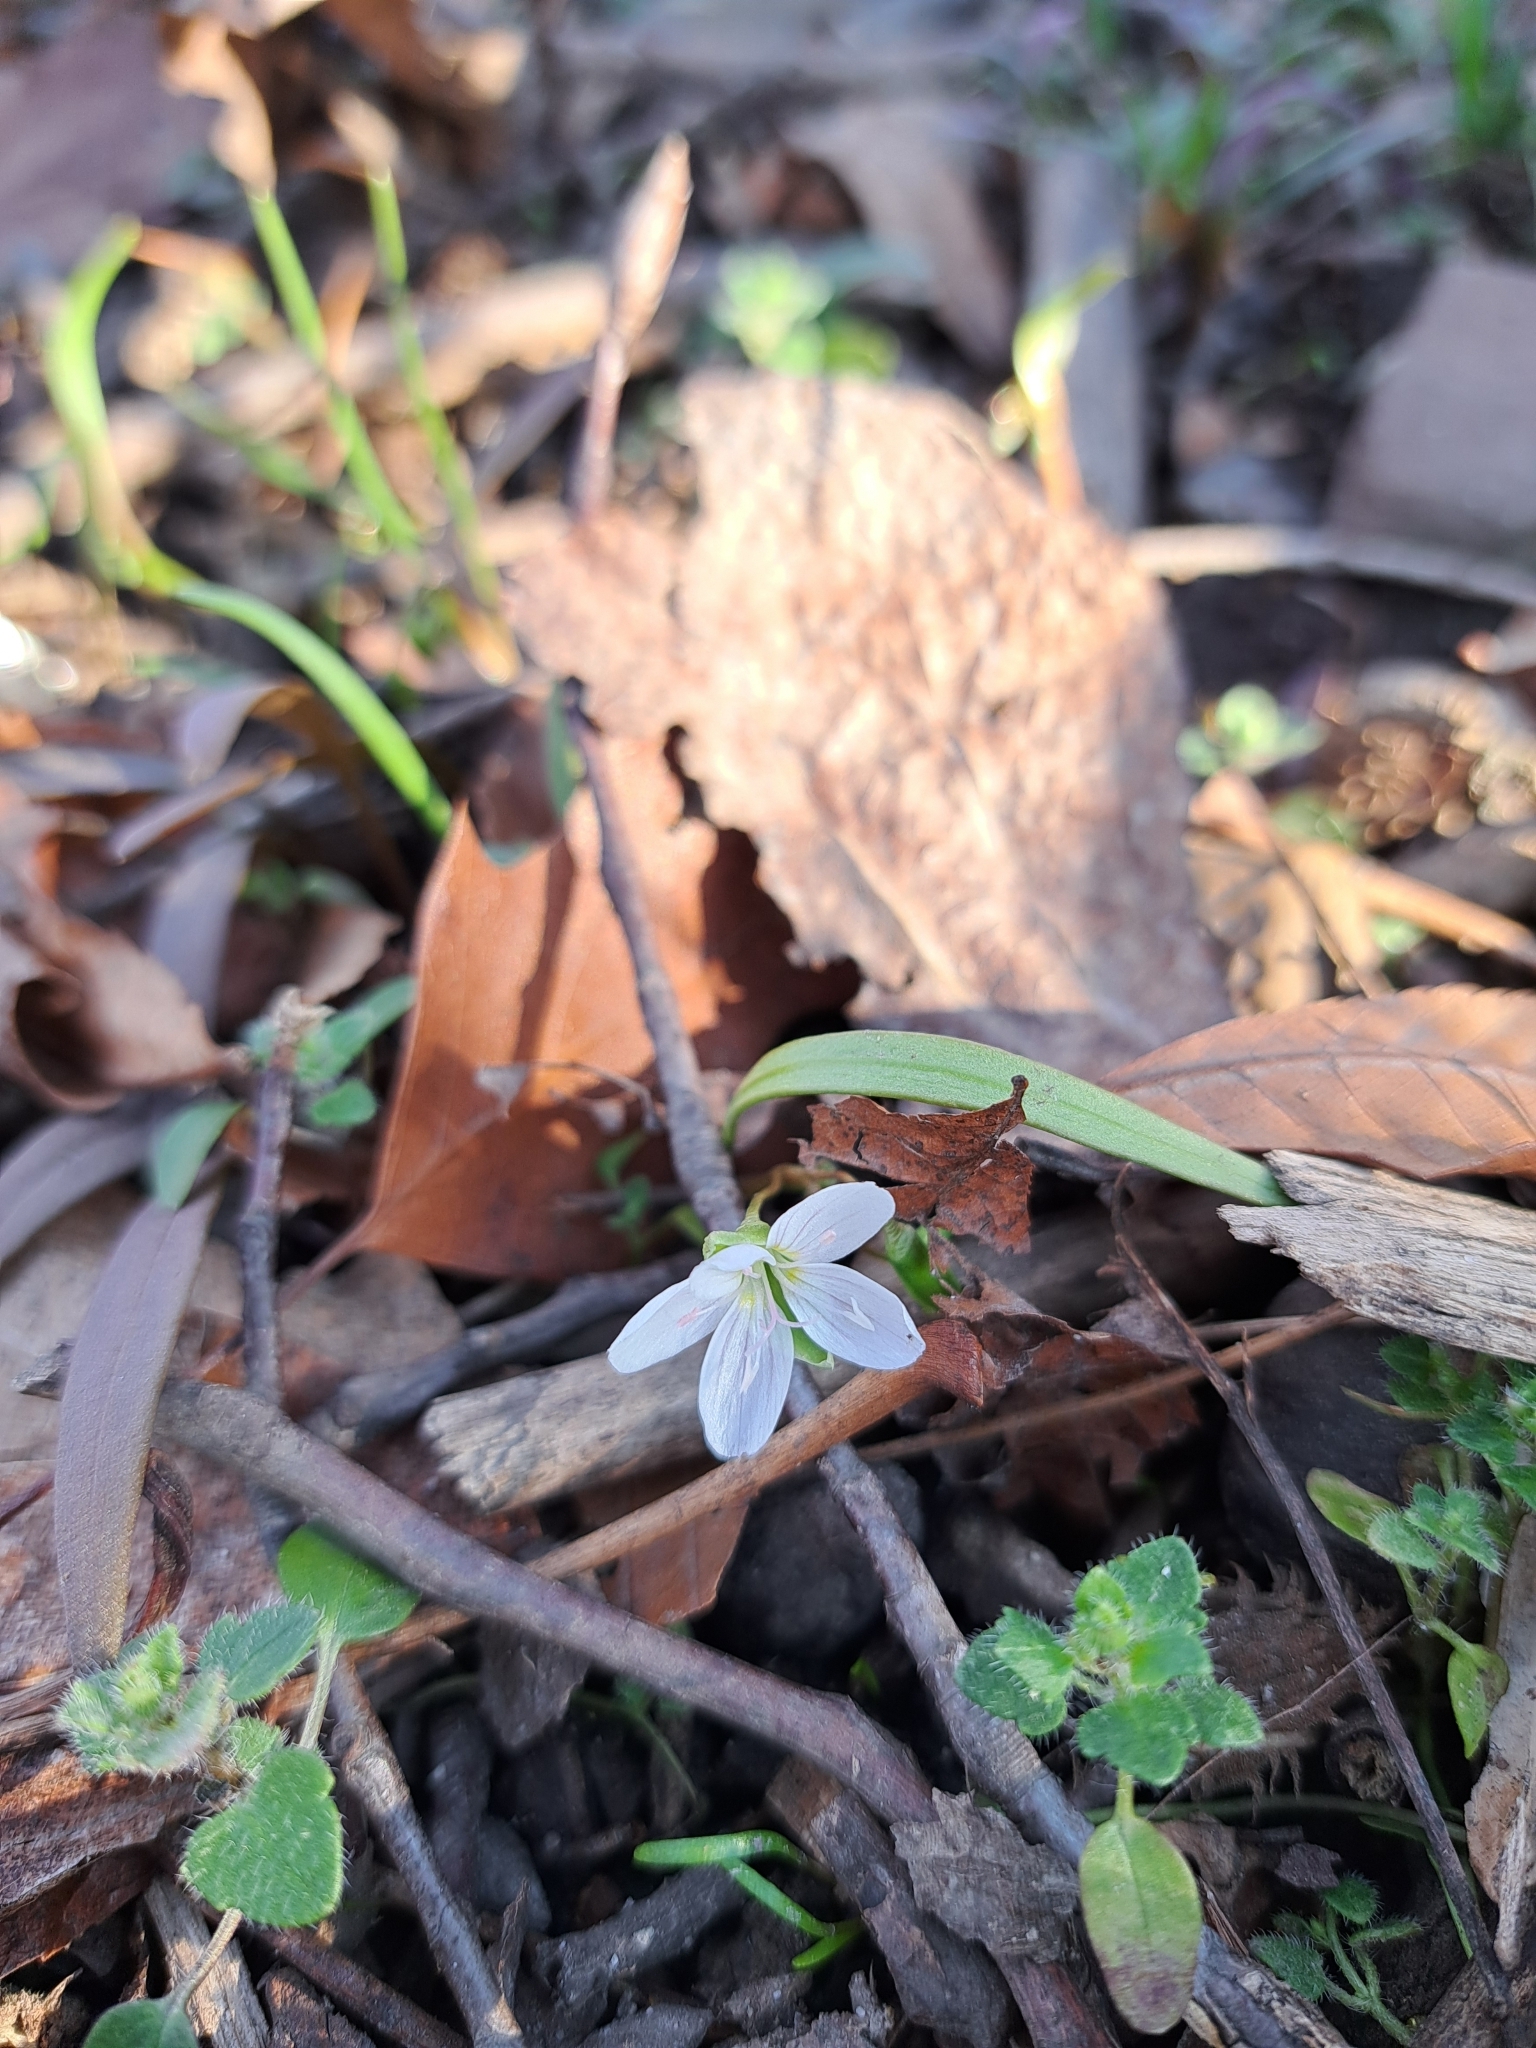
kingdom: Plantae
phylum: Tracheophyta
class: Magnoliopsida
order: Caryophyllales
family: Montiaceae
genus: Claytonia
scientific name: Claytonia virginica
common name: Virginia springbeauty
